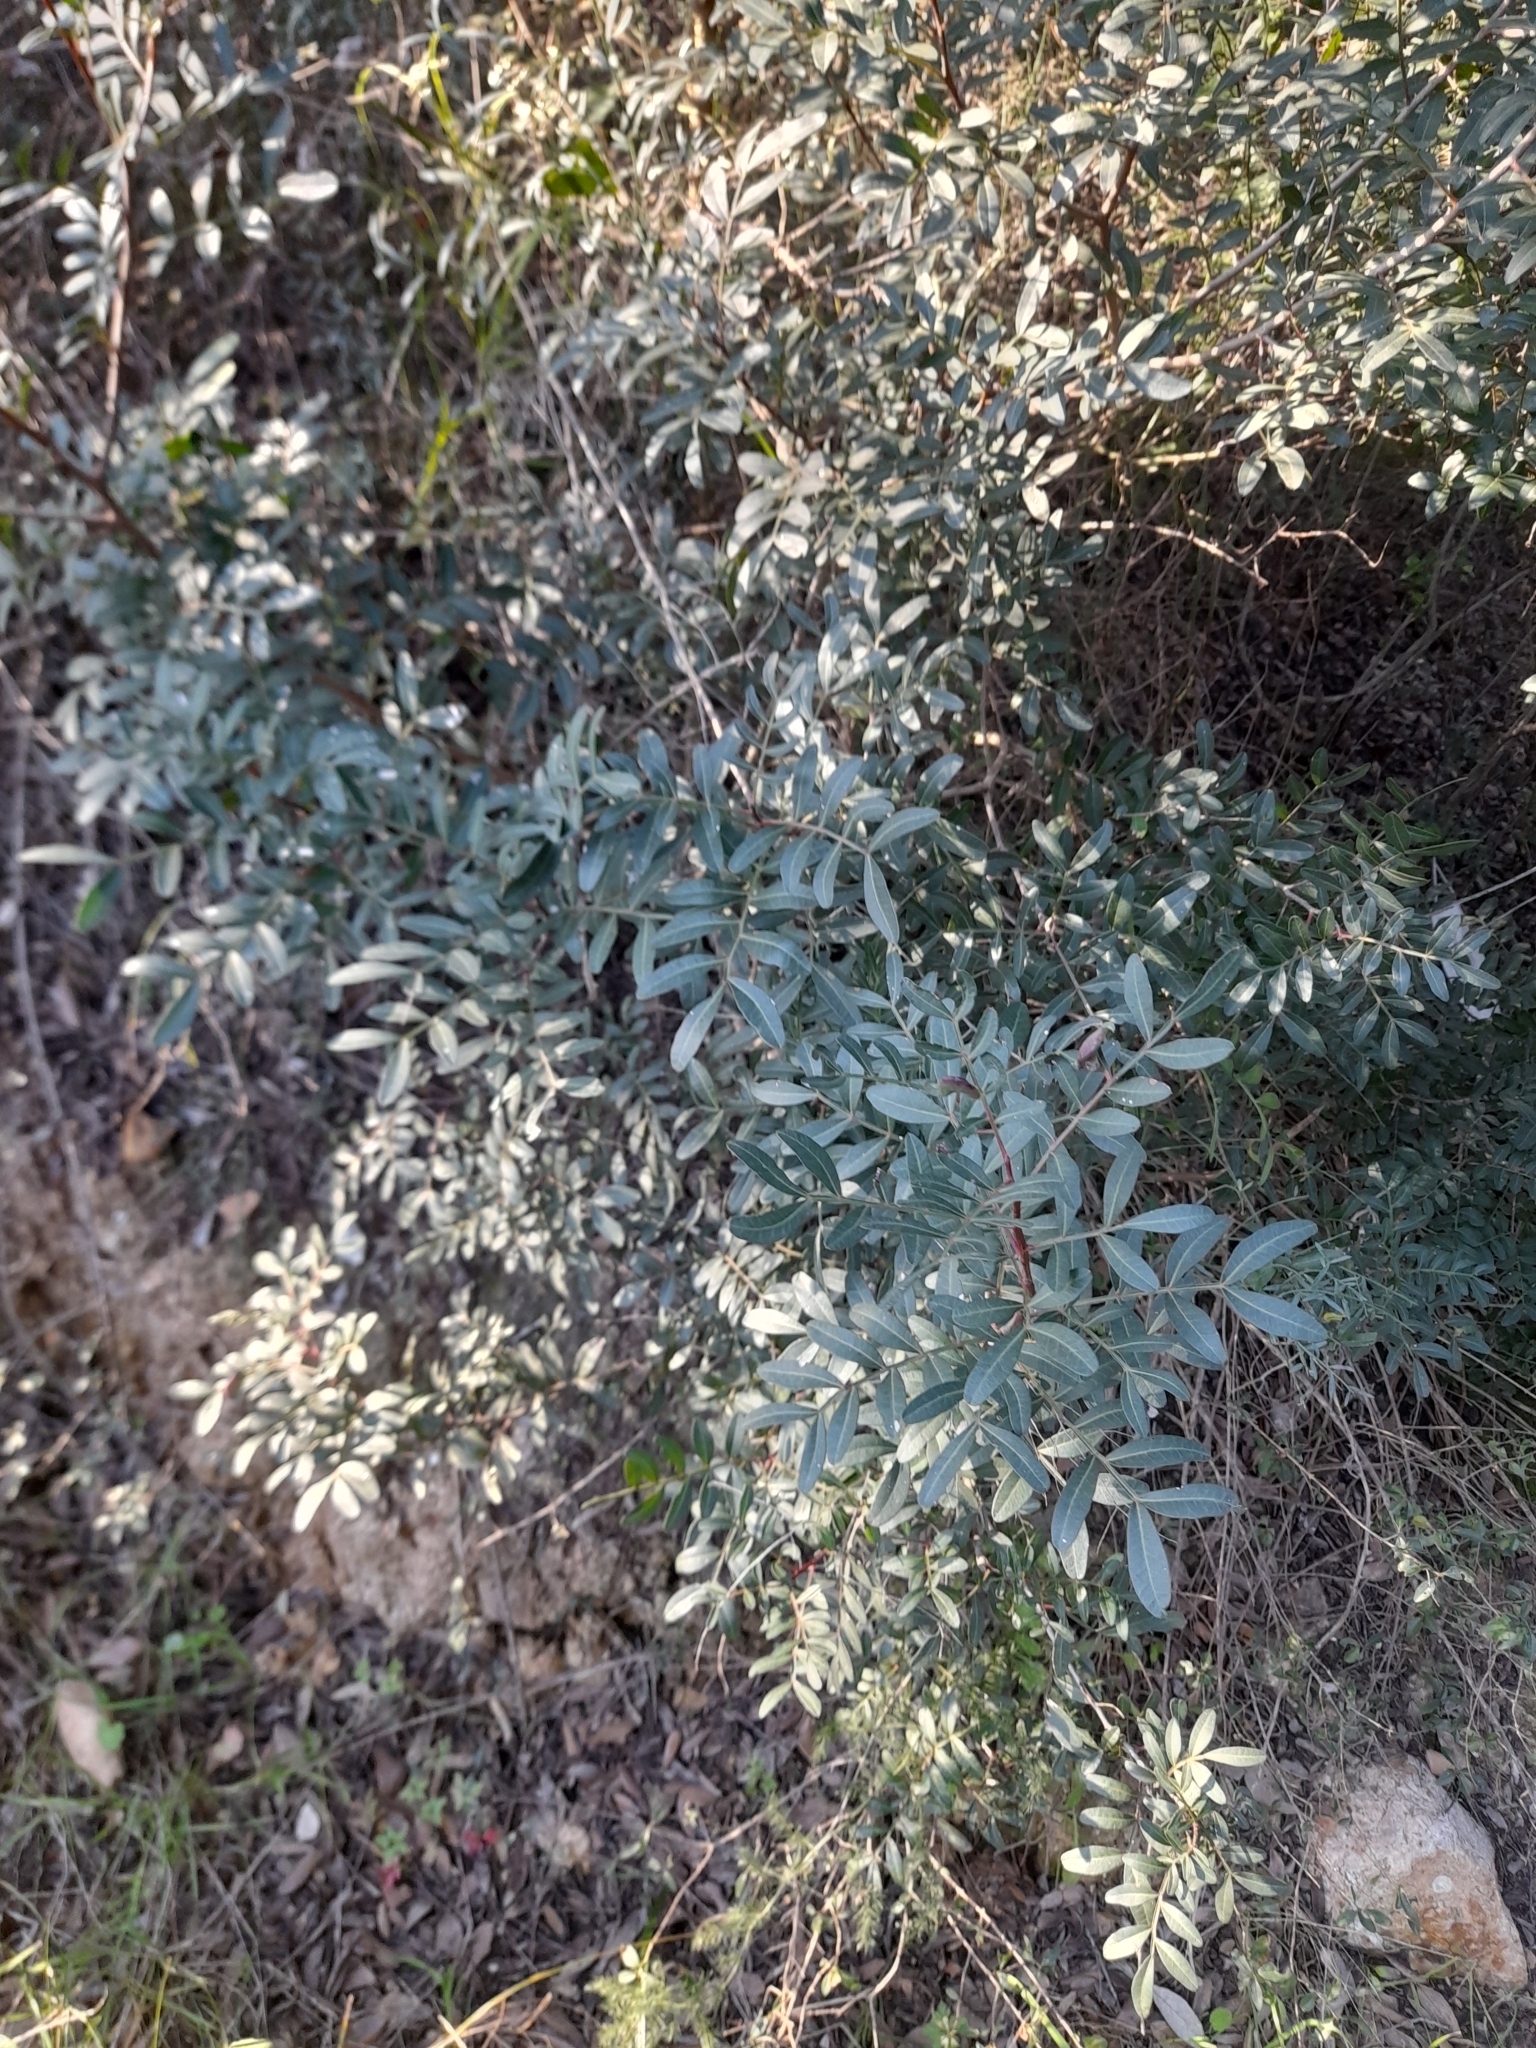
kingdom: Plantae
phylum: Tracheophyta
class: Magnoliopsida
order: Sapindales
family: Anacardiaceae
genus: Pistacia
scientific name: Pistacia lentiscus
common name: Lentisk
